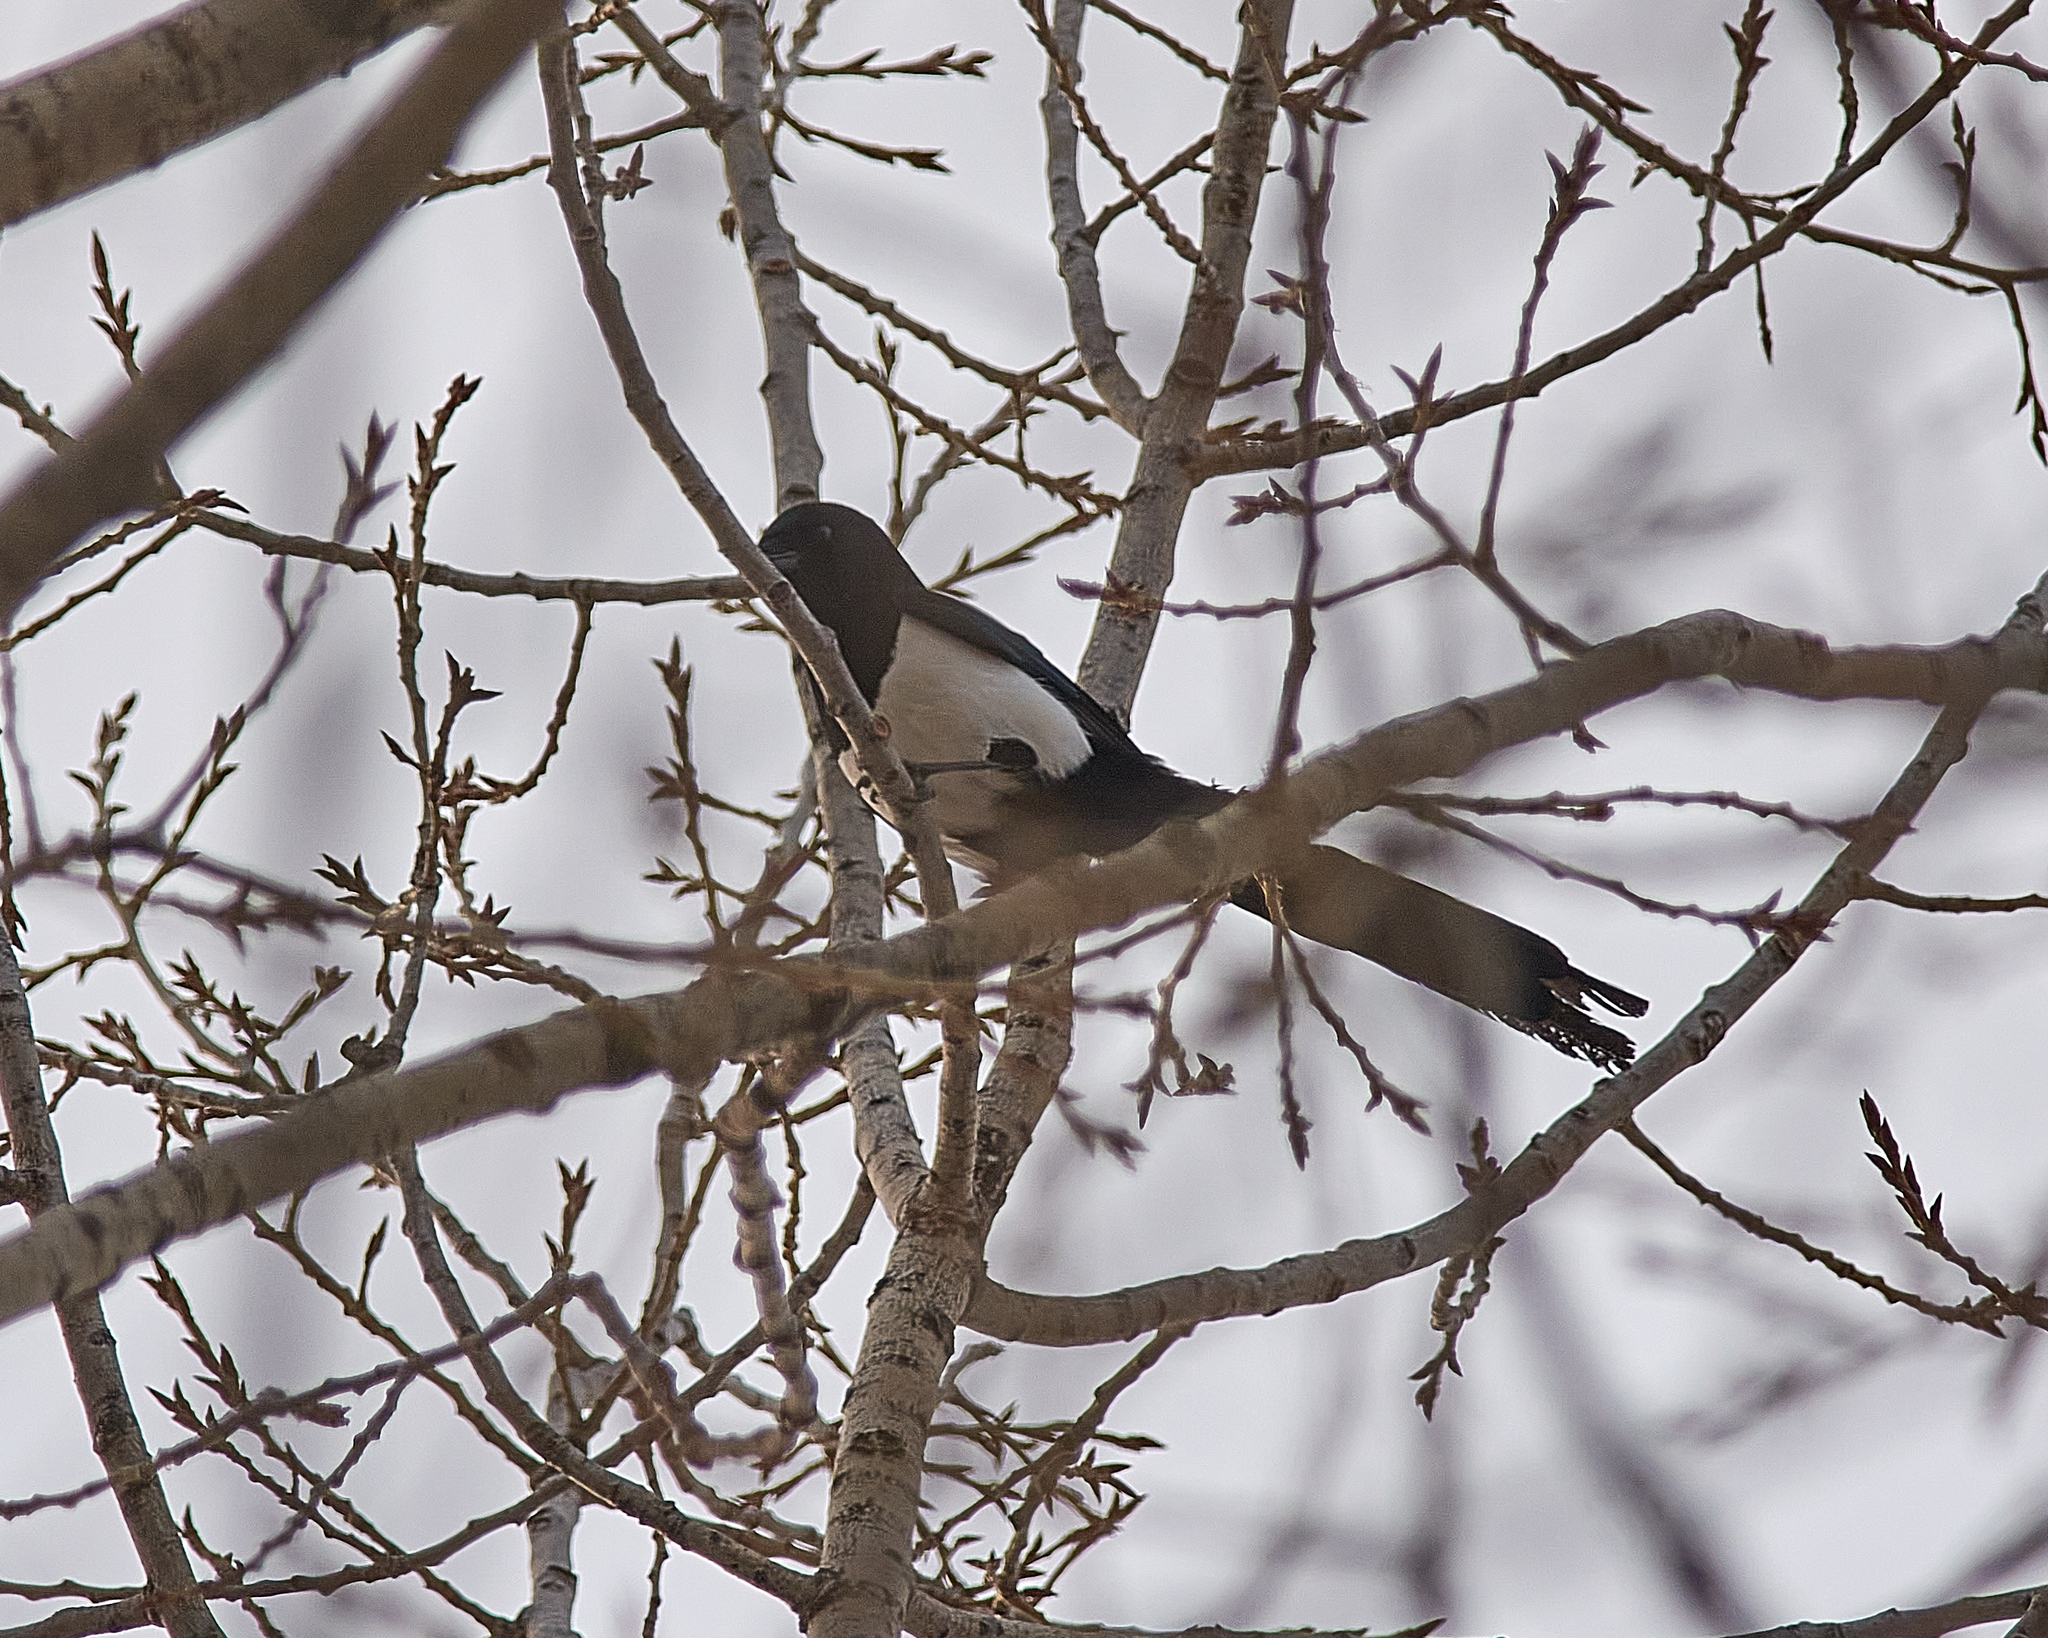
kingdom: Animalia
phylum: Chordata
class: Aves
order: Passeriformes
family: Corvidae
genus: Pica
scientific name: Pica pica
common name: Eurasian magpie
